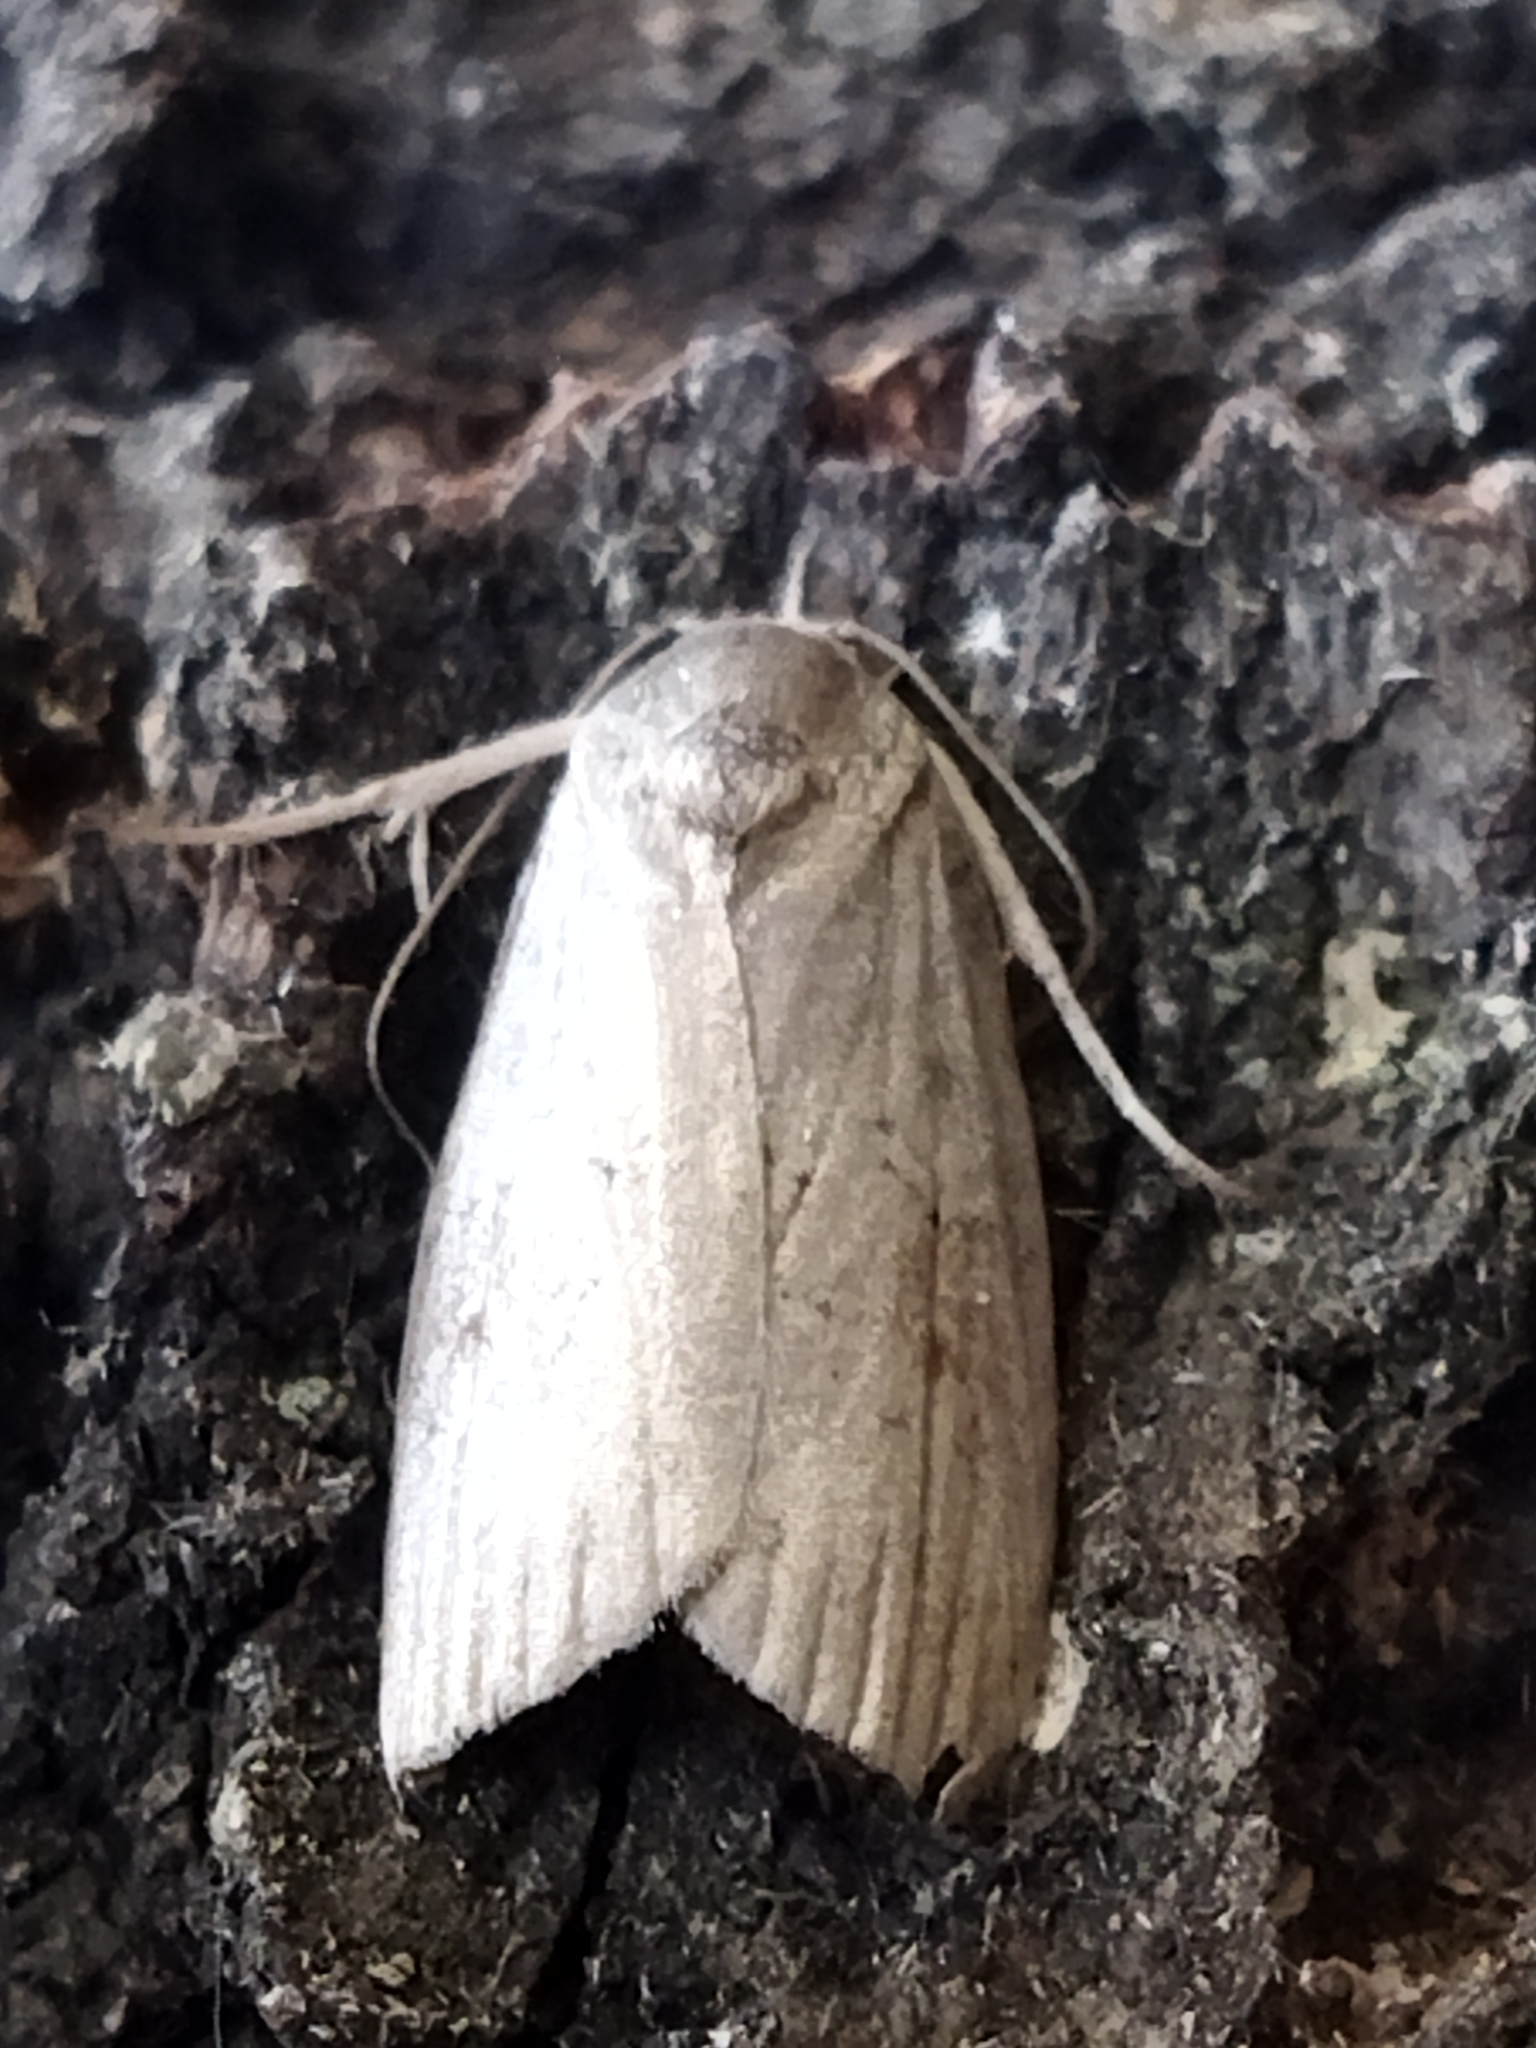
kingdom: Animalia
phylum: Arthropoda
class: Insecta
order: Lepidoptera
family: Nolidae
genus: Nycteola
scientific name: Nycteola
